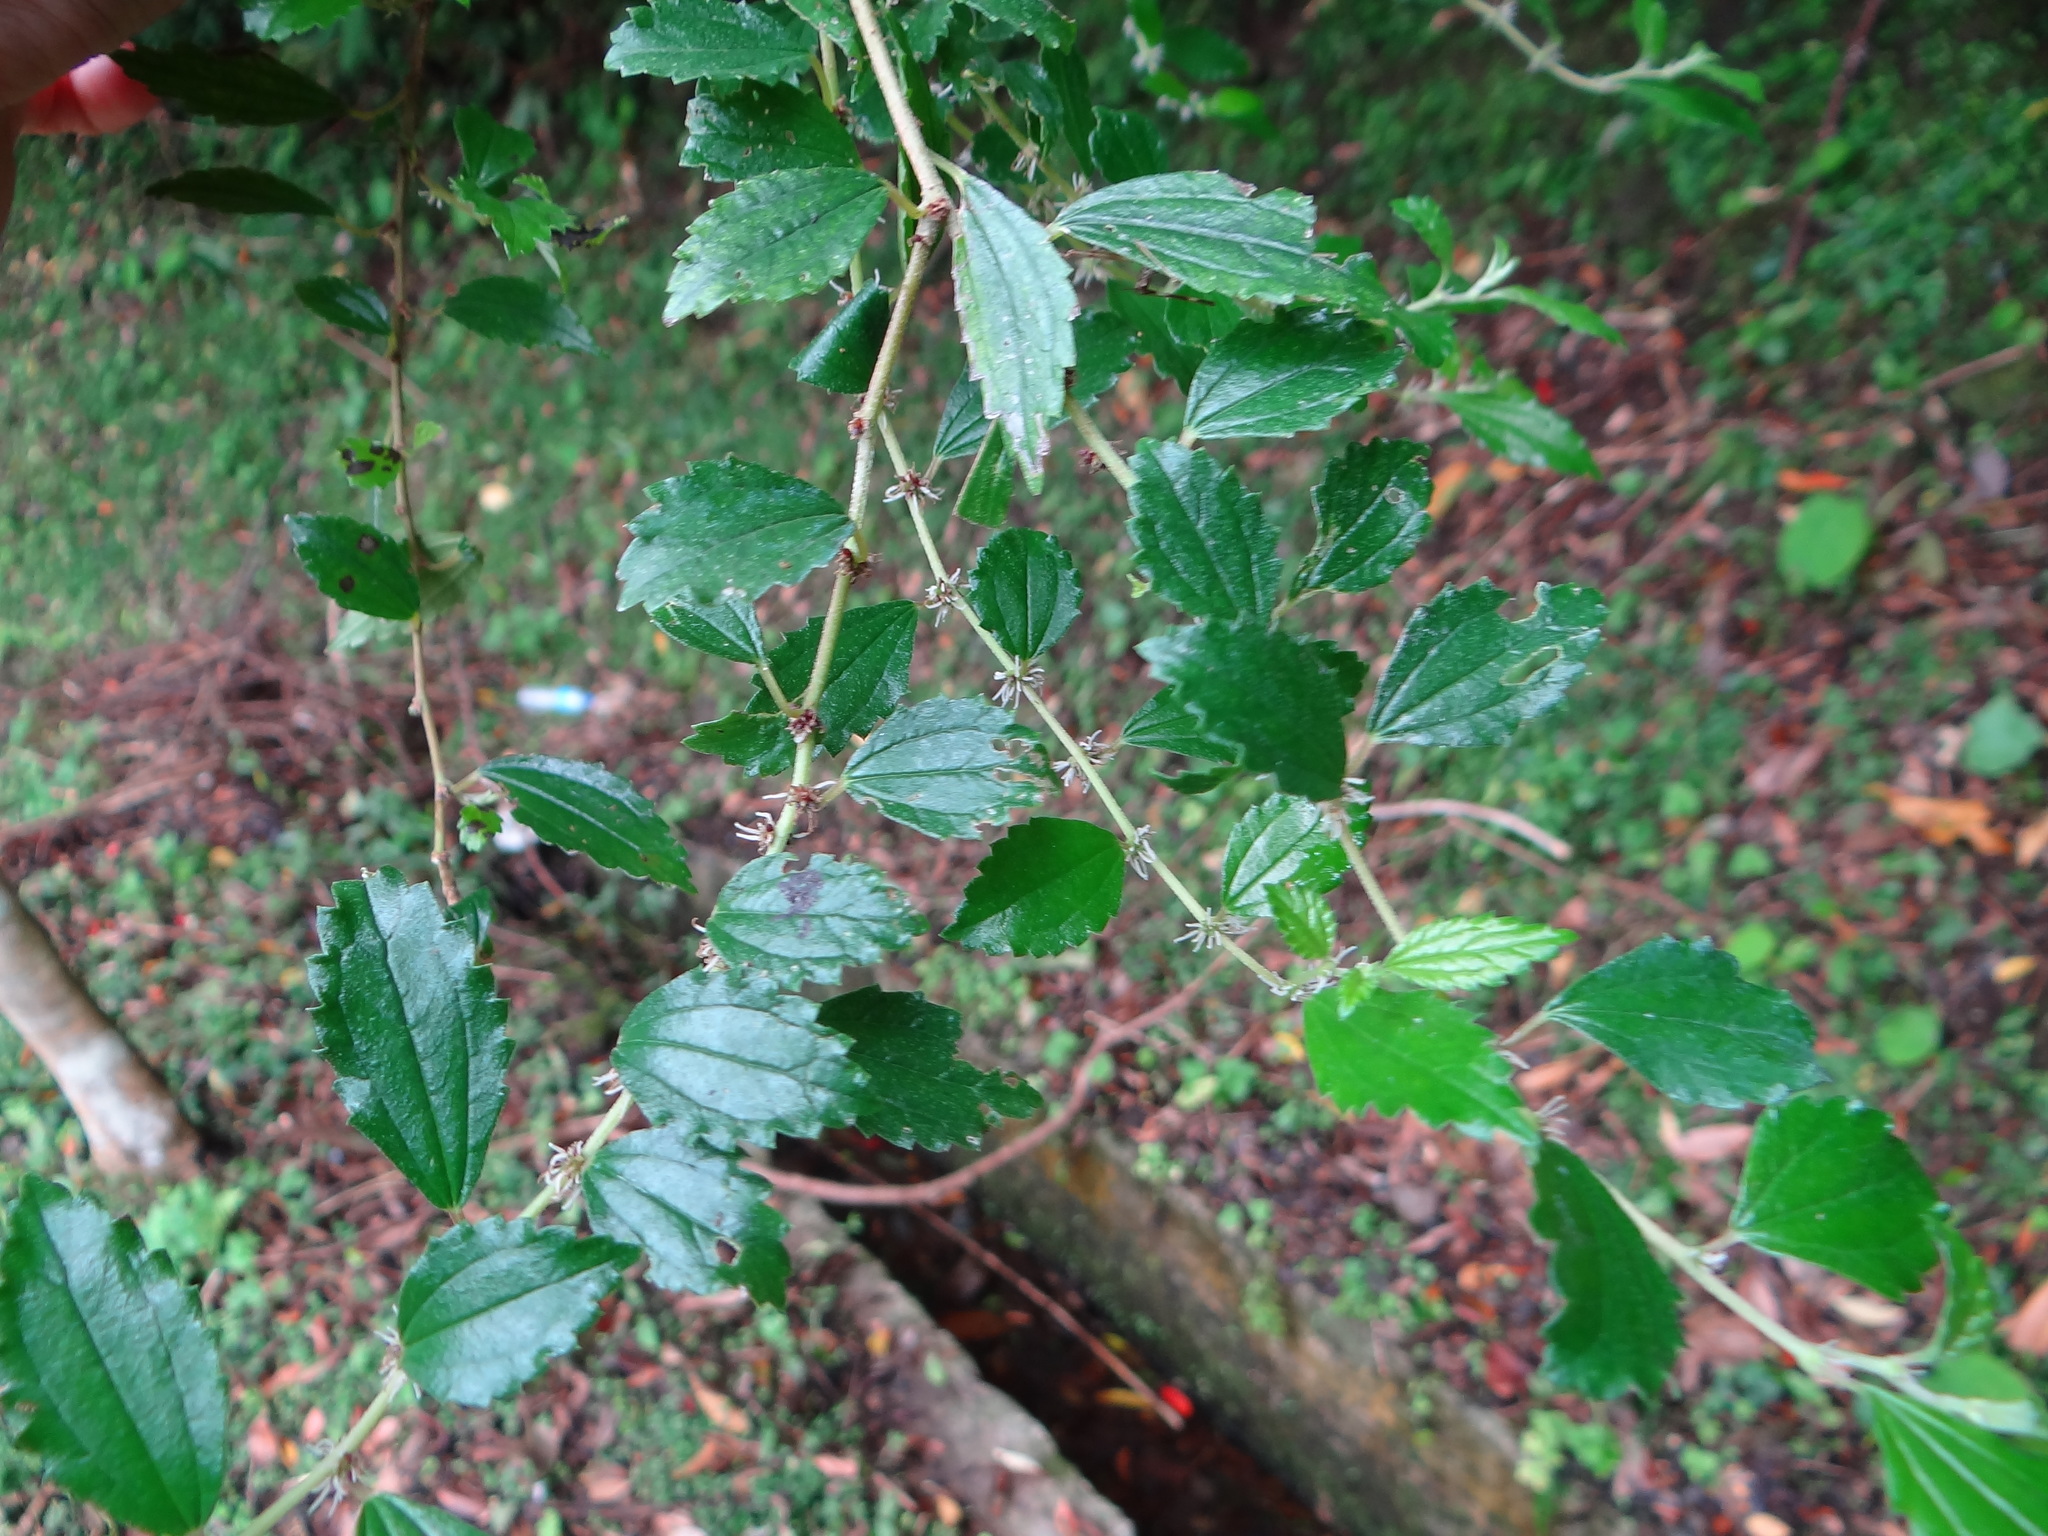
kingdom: Plantae
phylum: Tracheophyta
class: Magnoliopsida
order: Rosales
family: Urticaceae
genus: Pouzolzia
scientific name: Pouzolzia sanguinea
